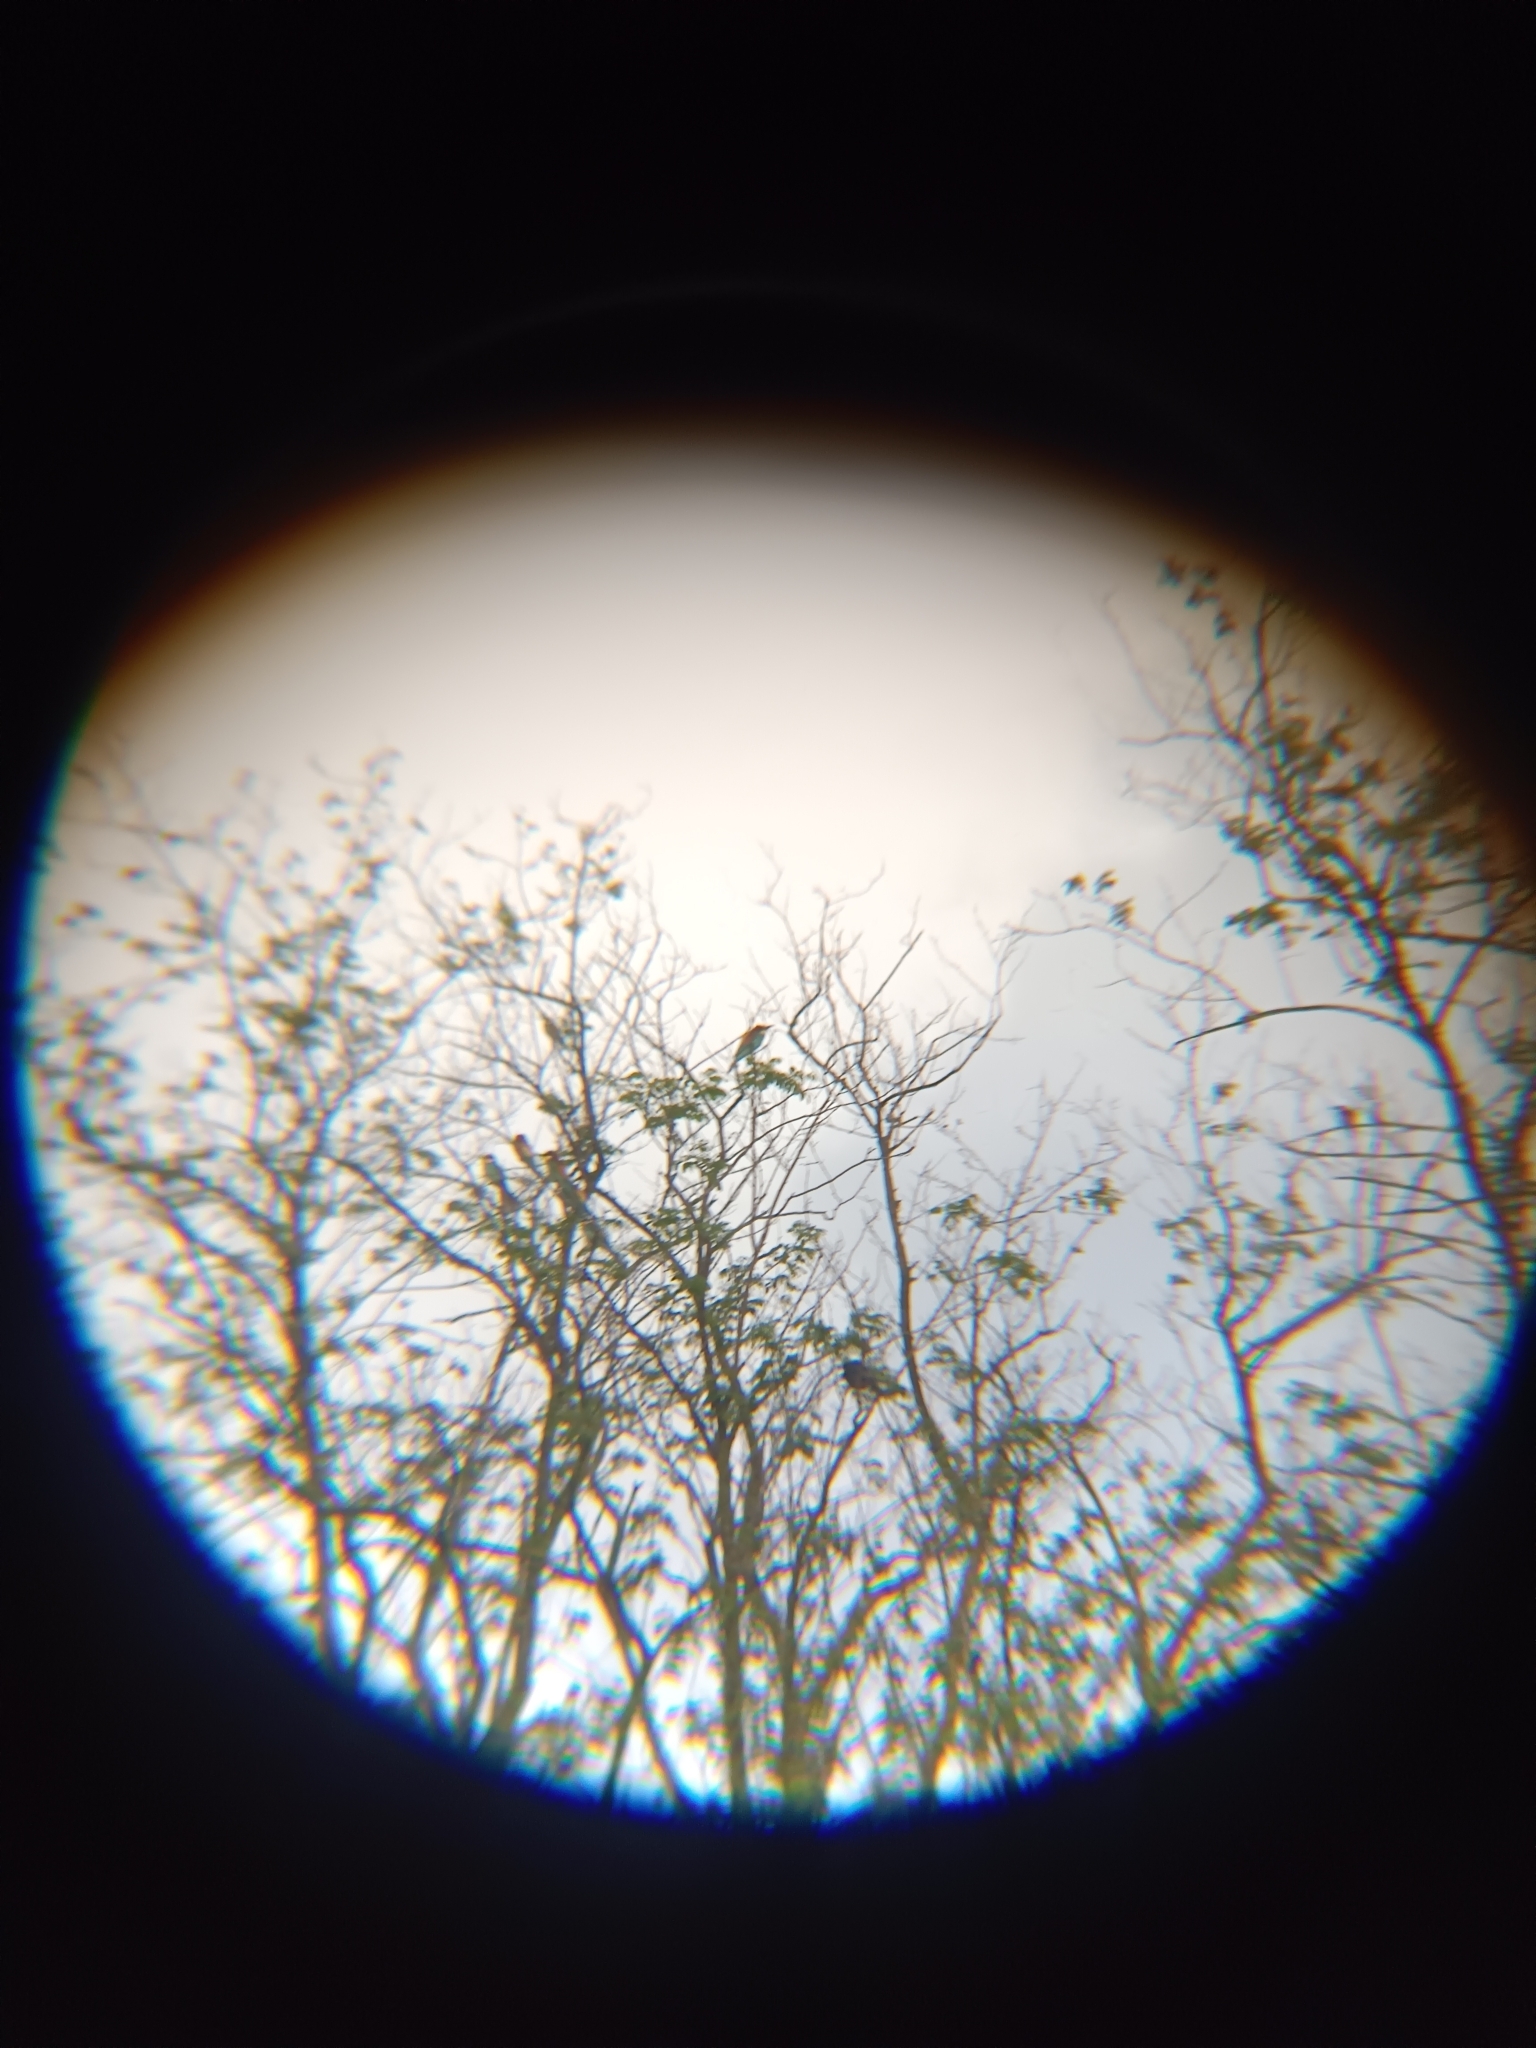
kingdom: Animalia
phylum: Chordata
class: Aves
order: Coraciiformes
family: Meropidae
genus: Merops
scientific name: Merops apiaster
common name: European bee-eater
